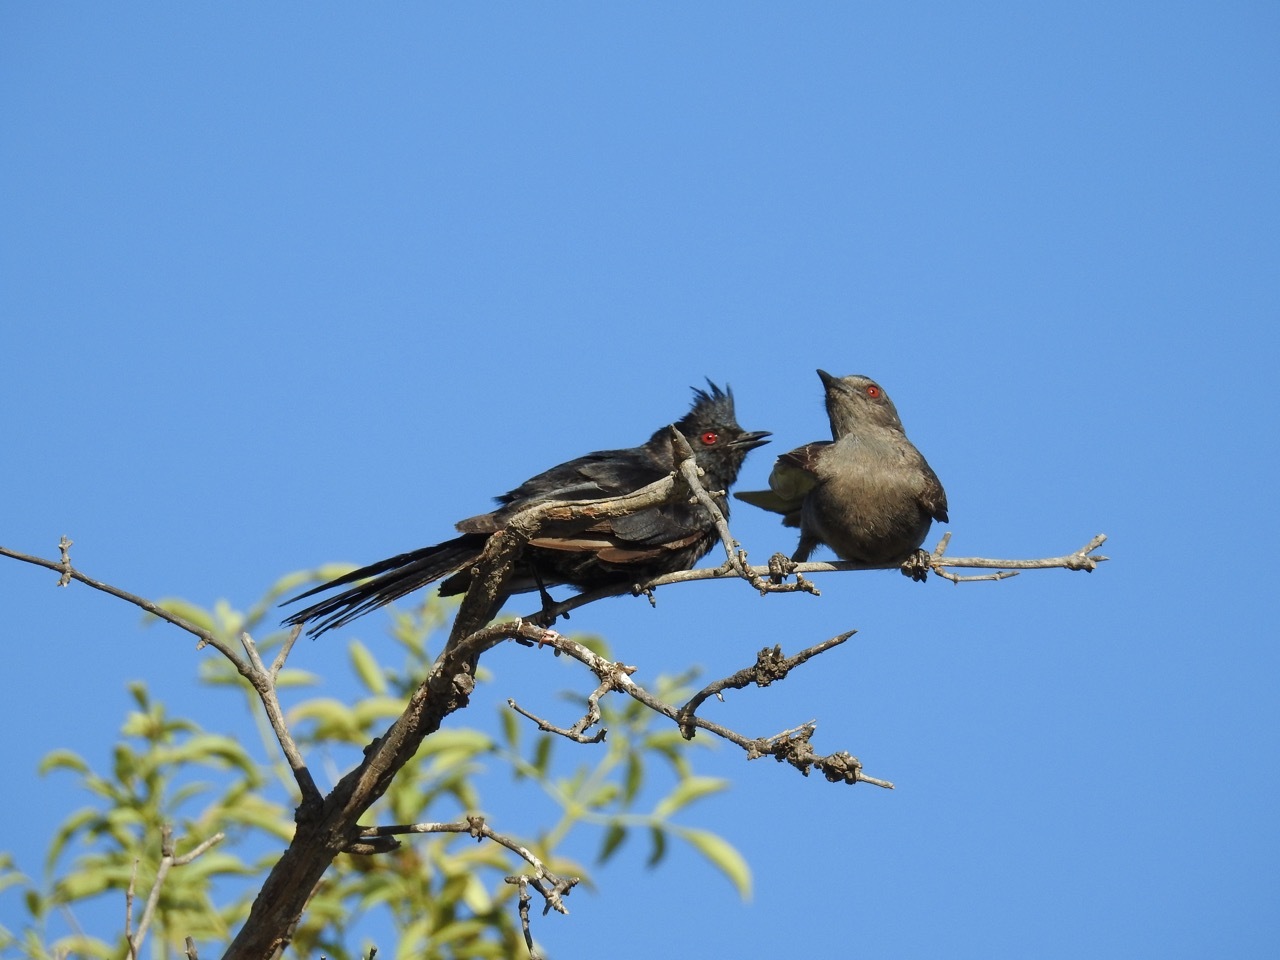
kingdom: Animalia
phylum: Chordata
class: Aves
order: Passeriformes
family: Ptilogonatidae
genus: Phainopepla
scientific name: Phainopepla nitens
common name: Phainopepla
